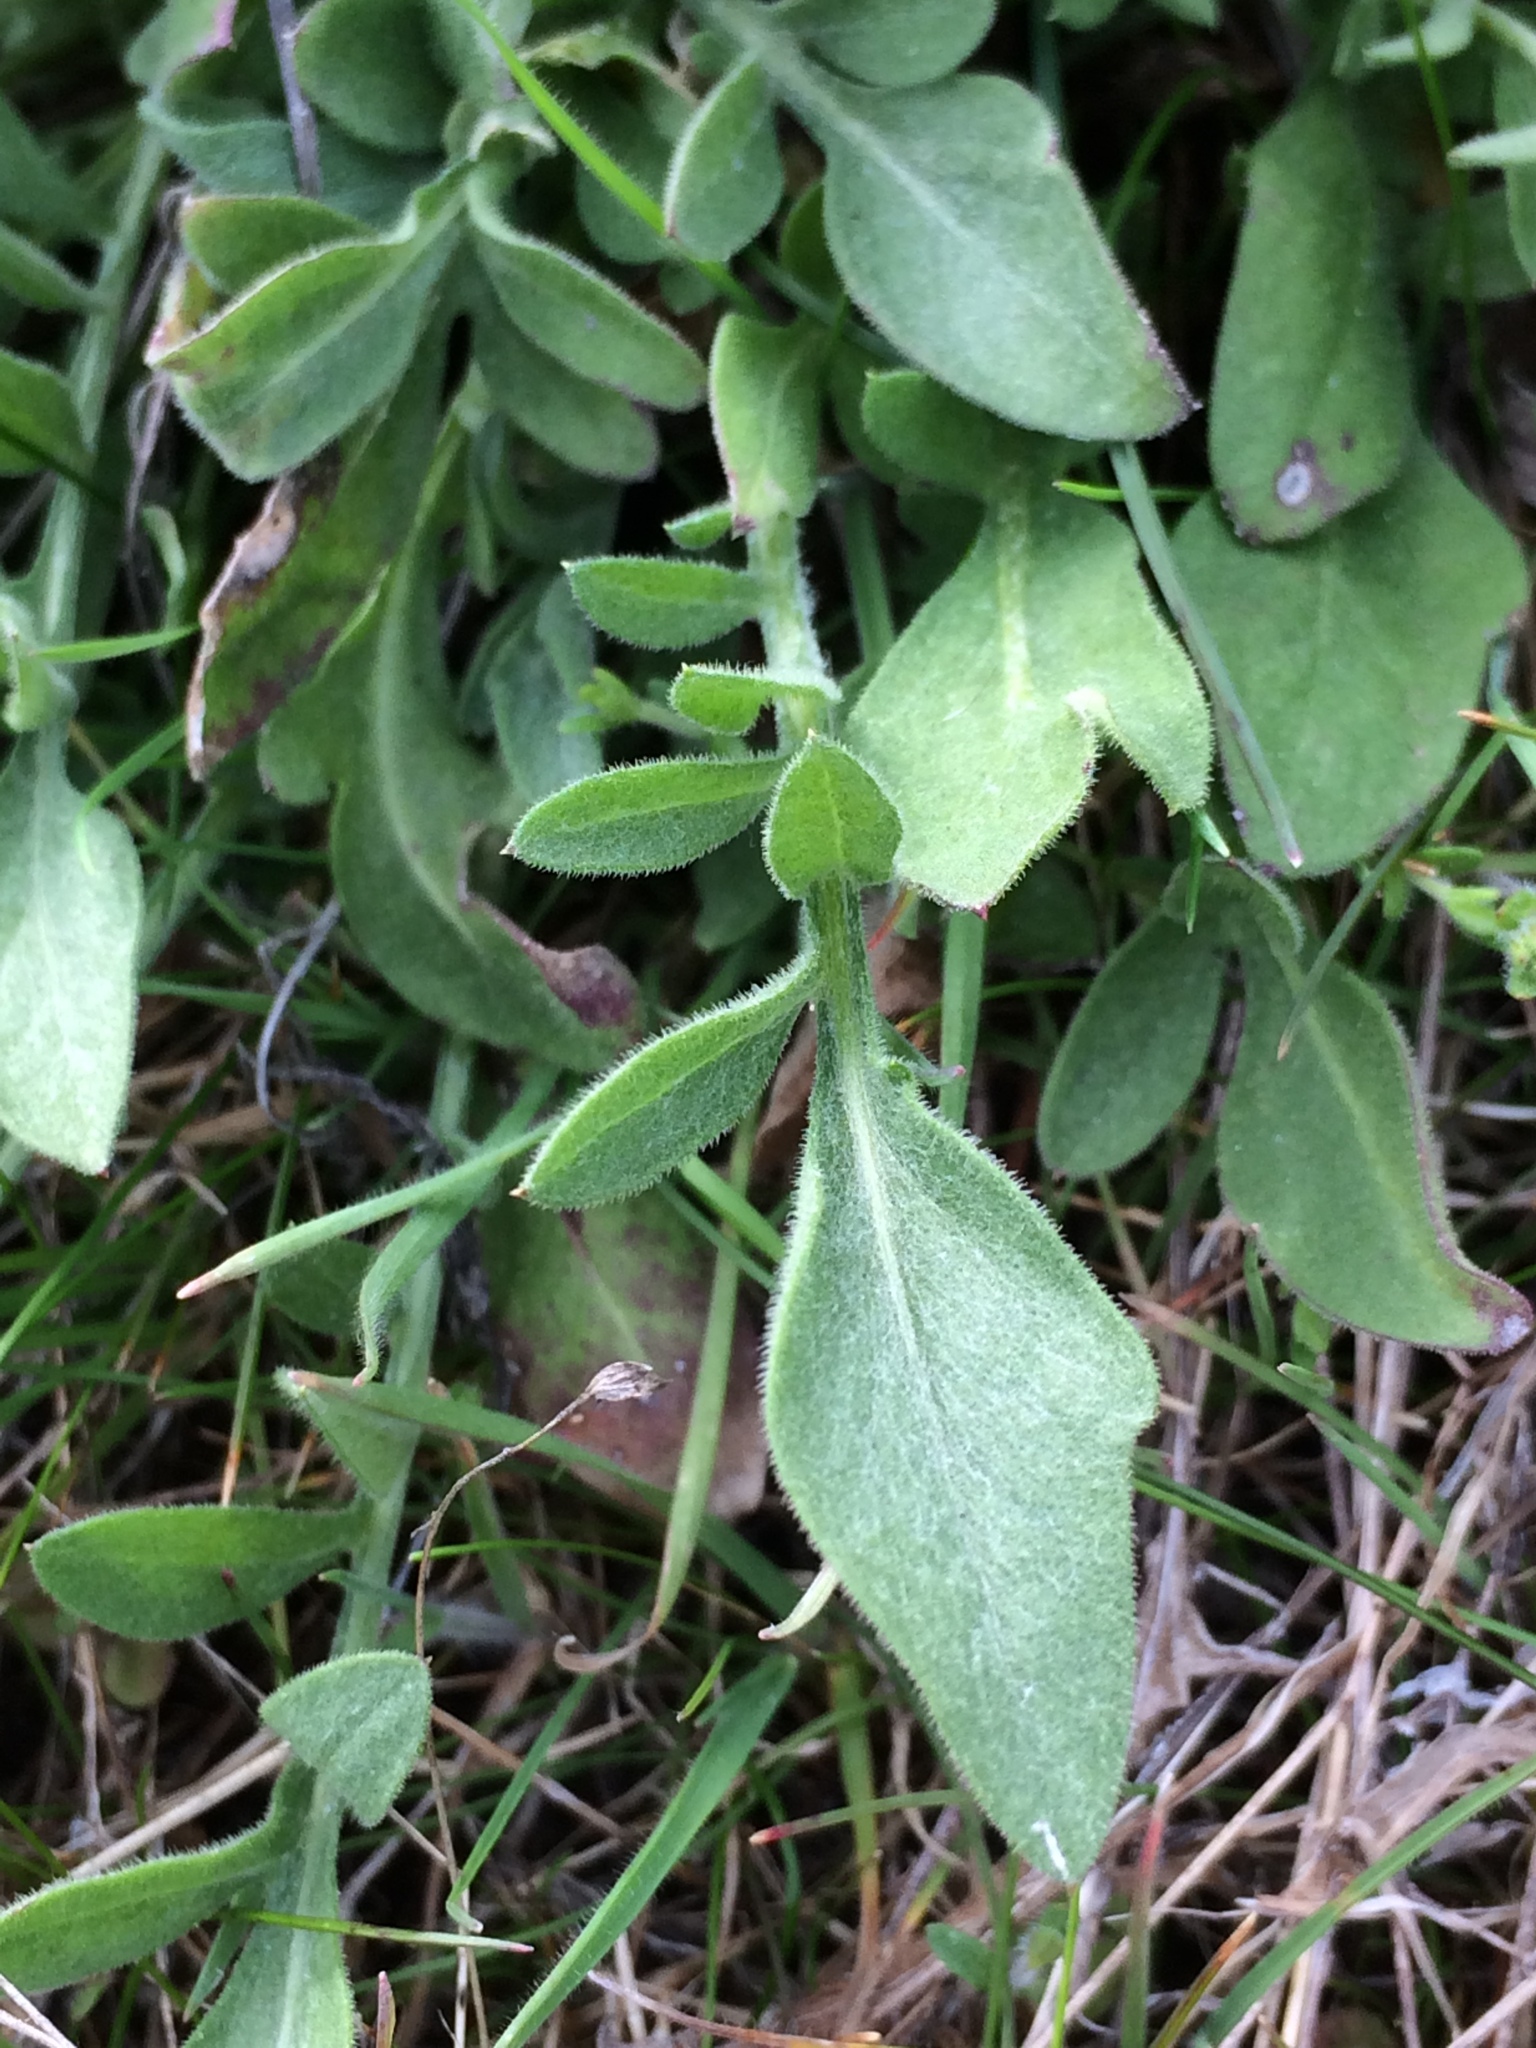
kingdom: Plantae
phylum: Tracheophyta
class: Magnoliopsida
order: Asterales
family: Asteraceae
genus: Centaurea
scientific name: Centaurea stoebe
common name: Spotted knapweed
